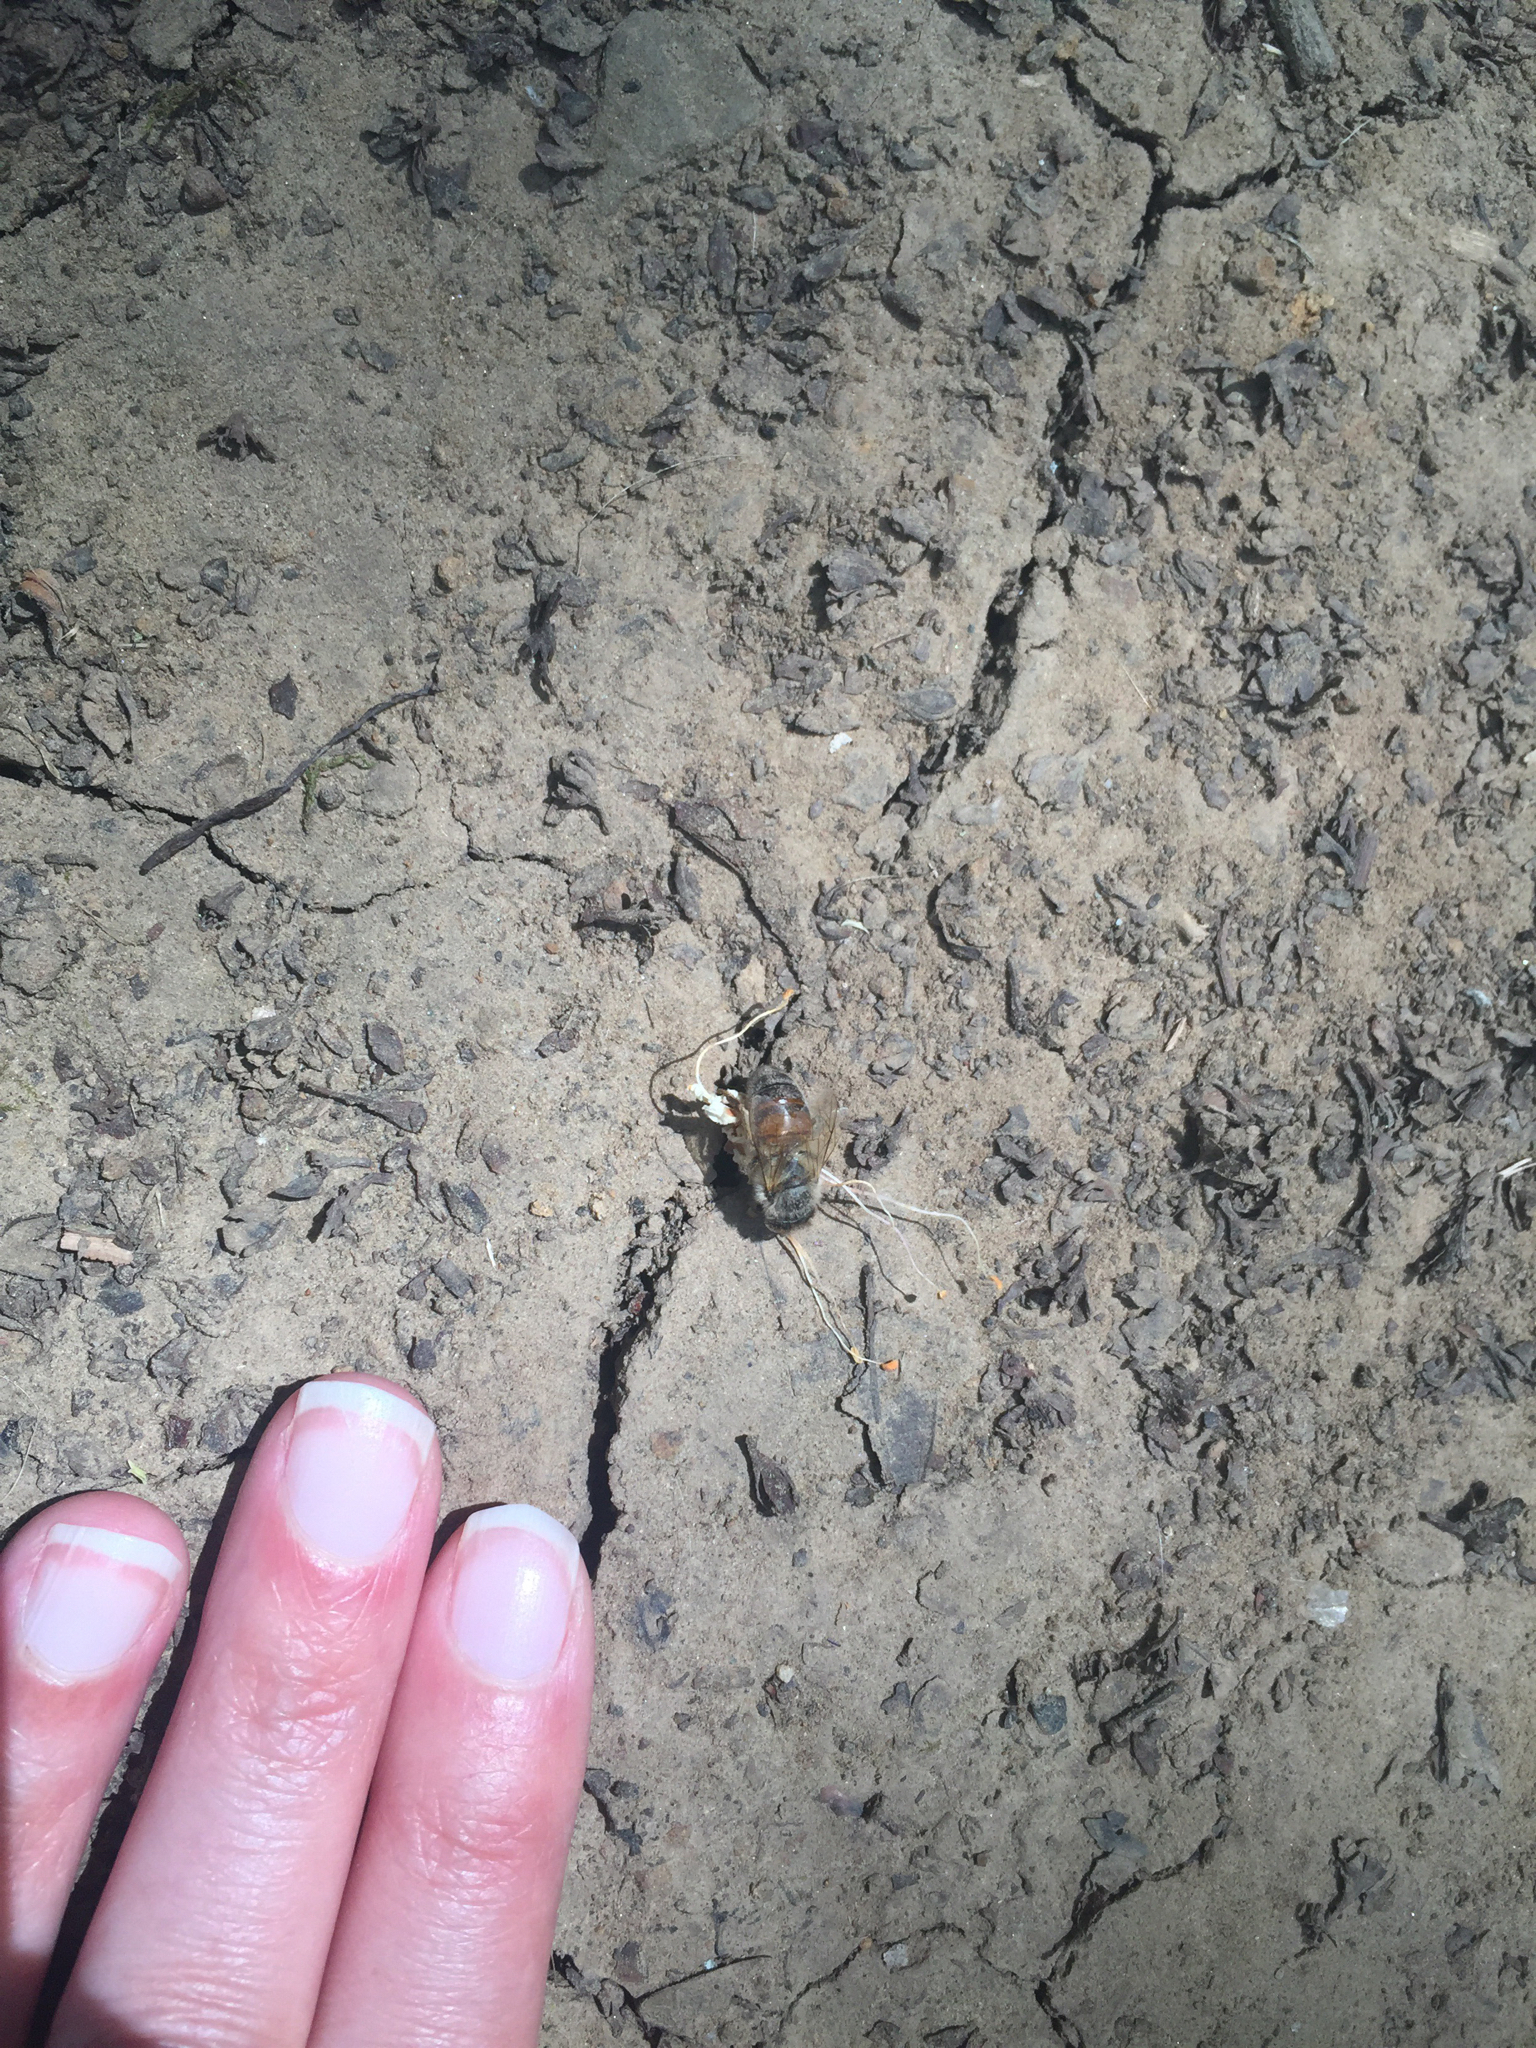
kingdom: Animalia
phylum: Arthropoda
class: Insecta
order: Hymenoptera
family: Apidae
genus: Apis
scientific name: Apis mellifera
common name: Honey bee
